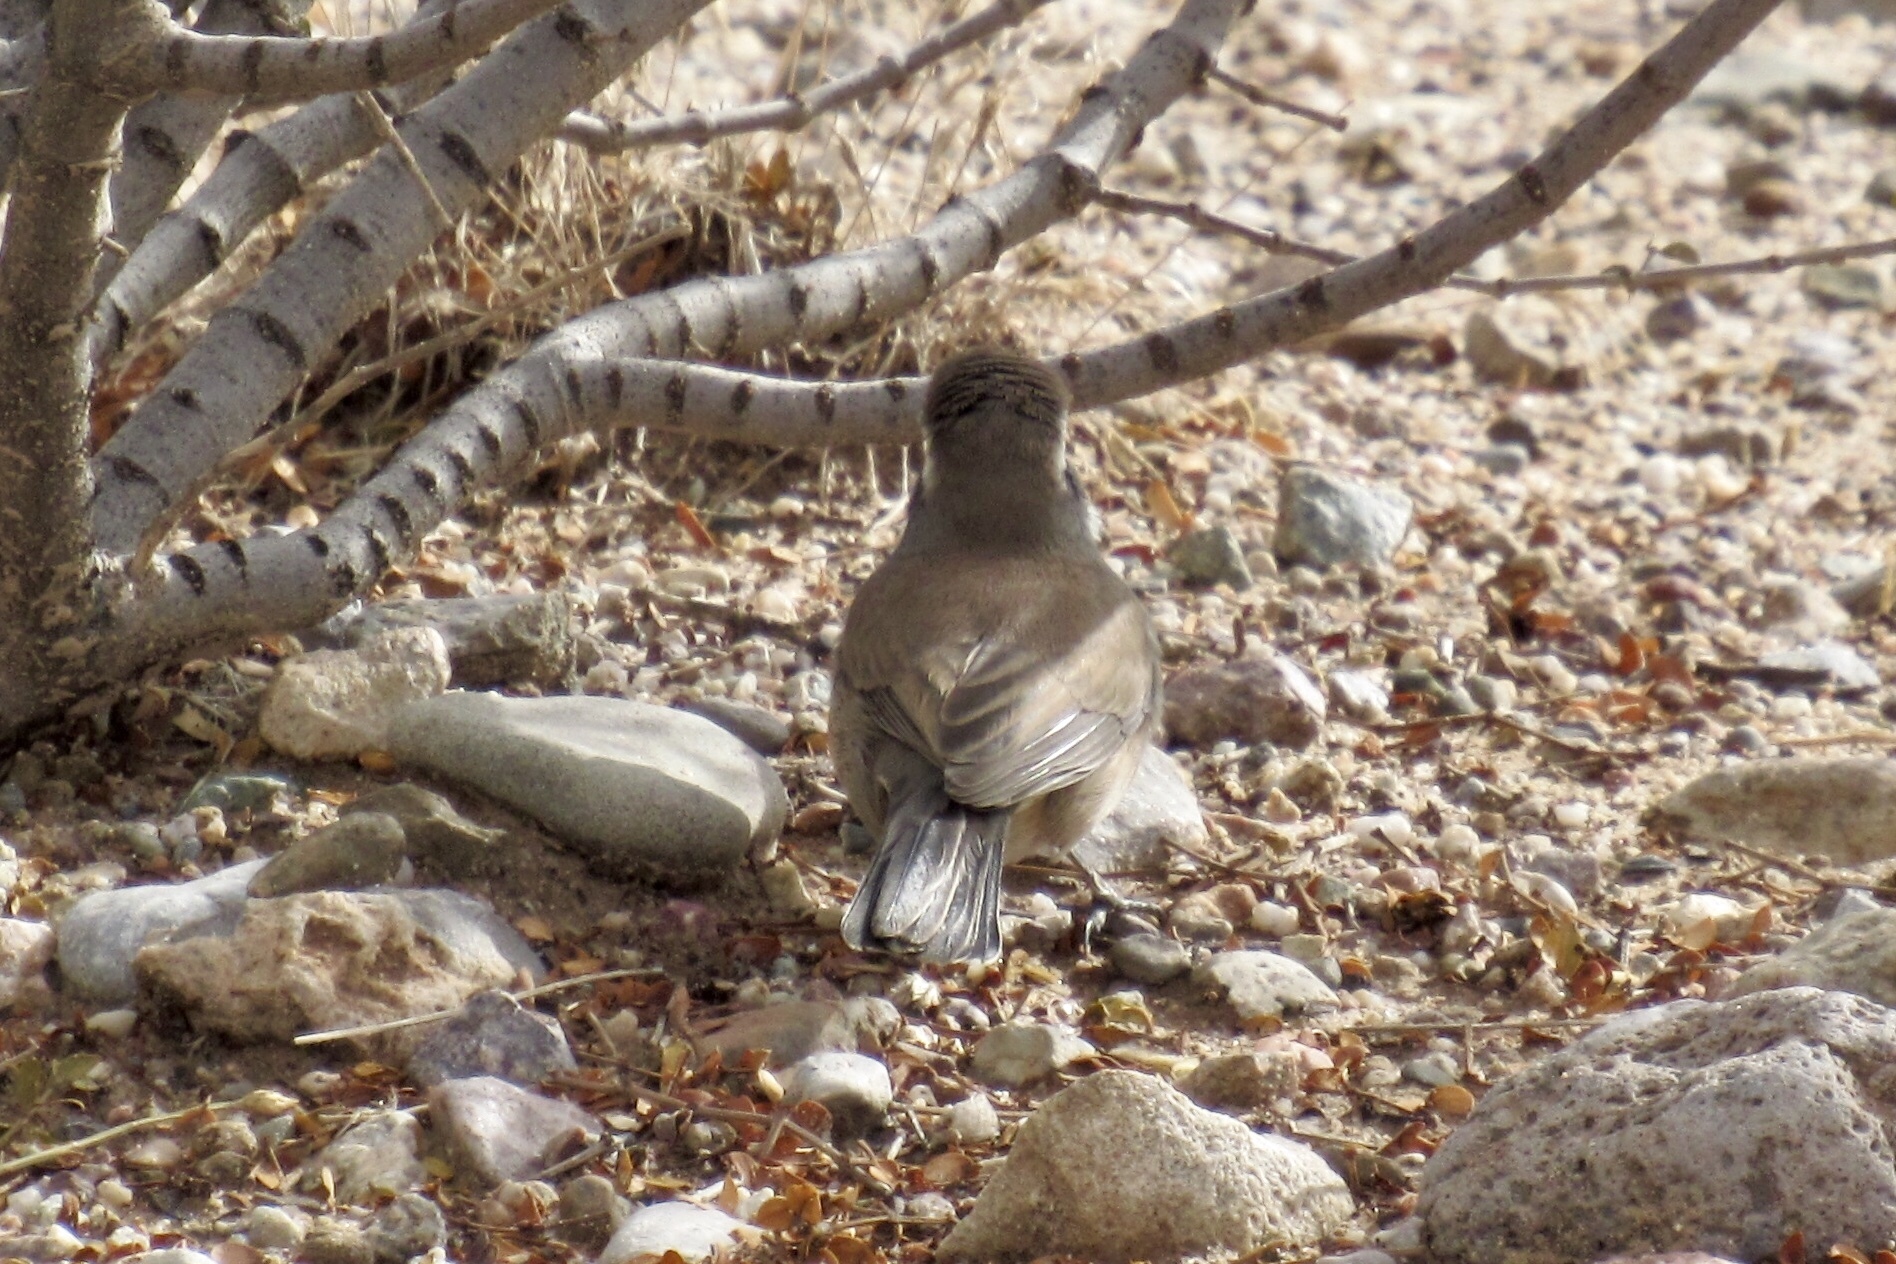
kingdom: Animalia
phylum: Chordata
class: Aves
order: Passeriformes
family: Passerellidae
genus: Amphispiza
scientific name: Amphispiza bilineata
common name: Black-throated sparrow
